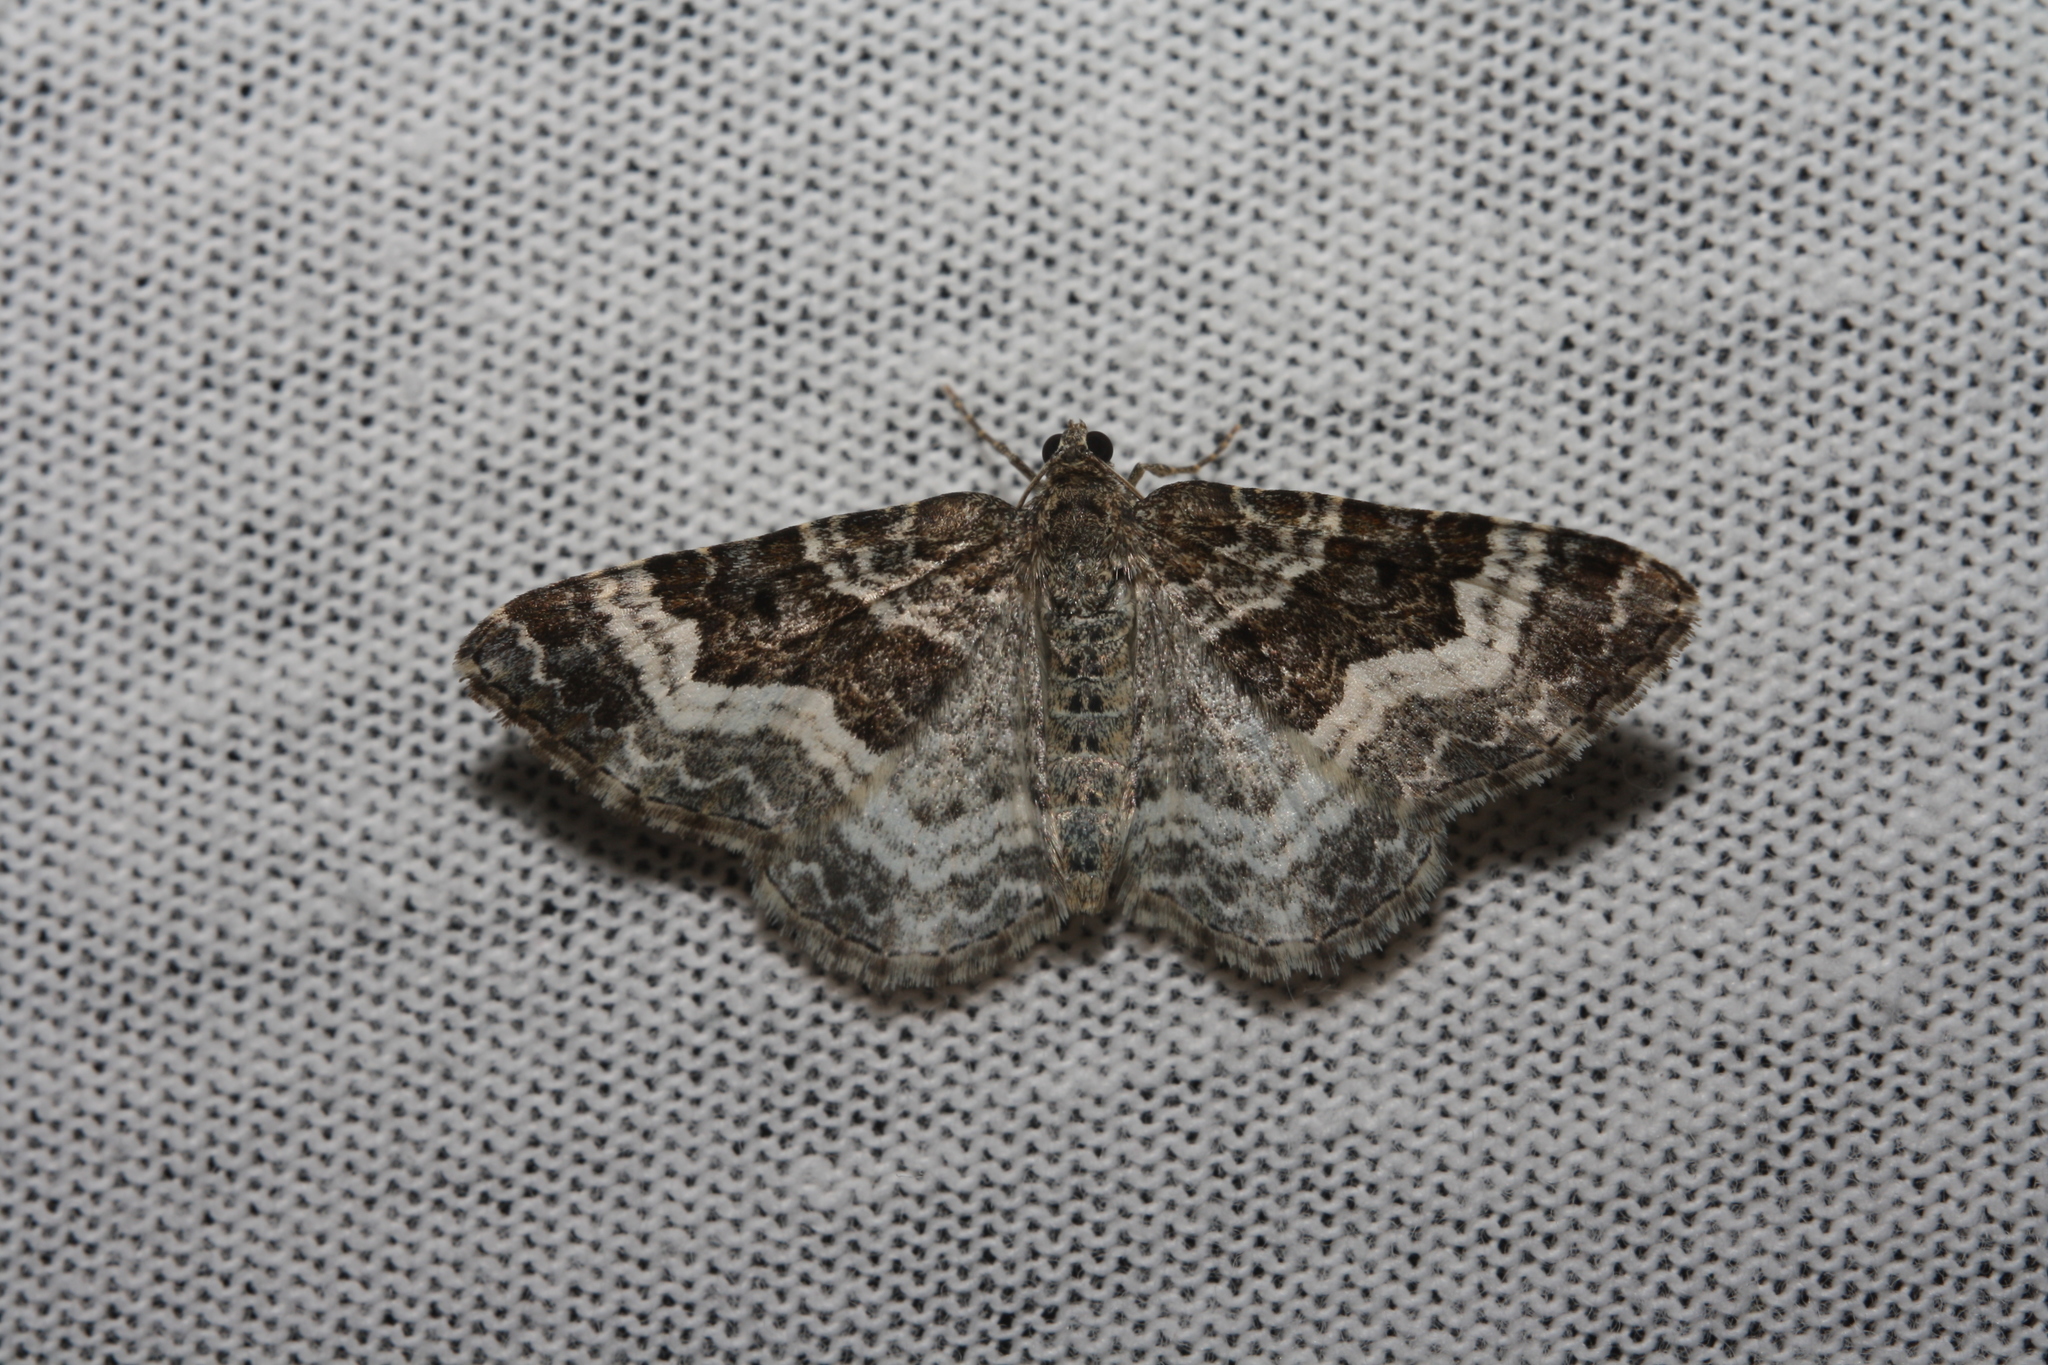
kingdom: Animalia
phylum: Arthropoda
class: Insecta
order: Lepidoptera
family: Geometridae
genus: Epirrhoe
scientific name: Epirrhoe alternata
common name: Common carpet
